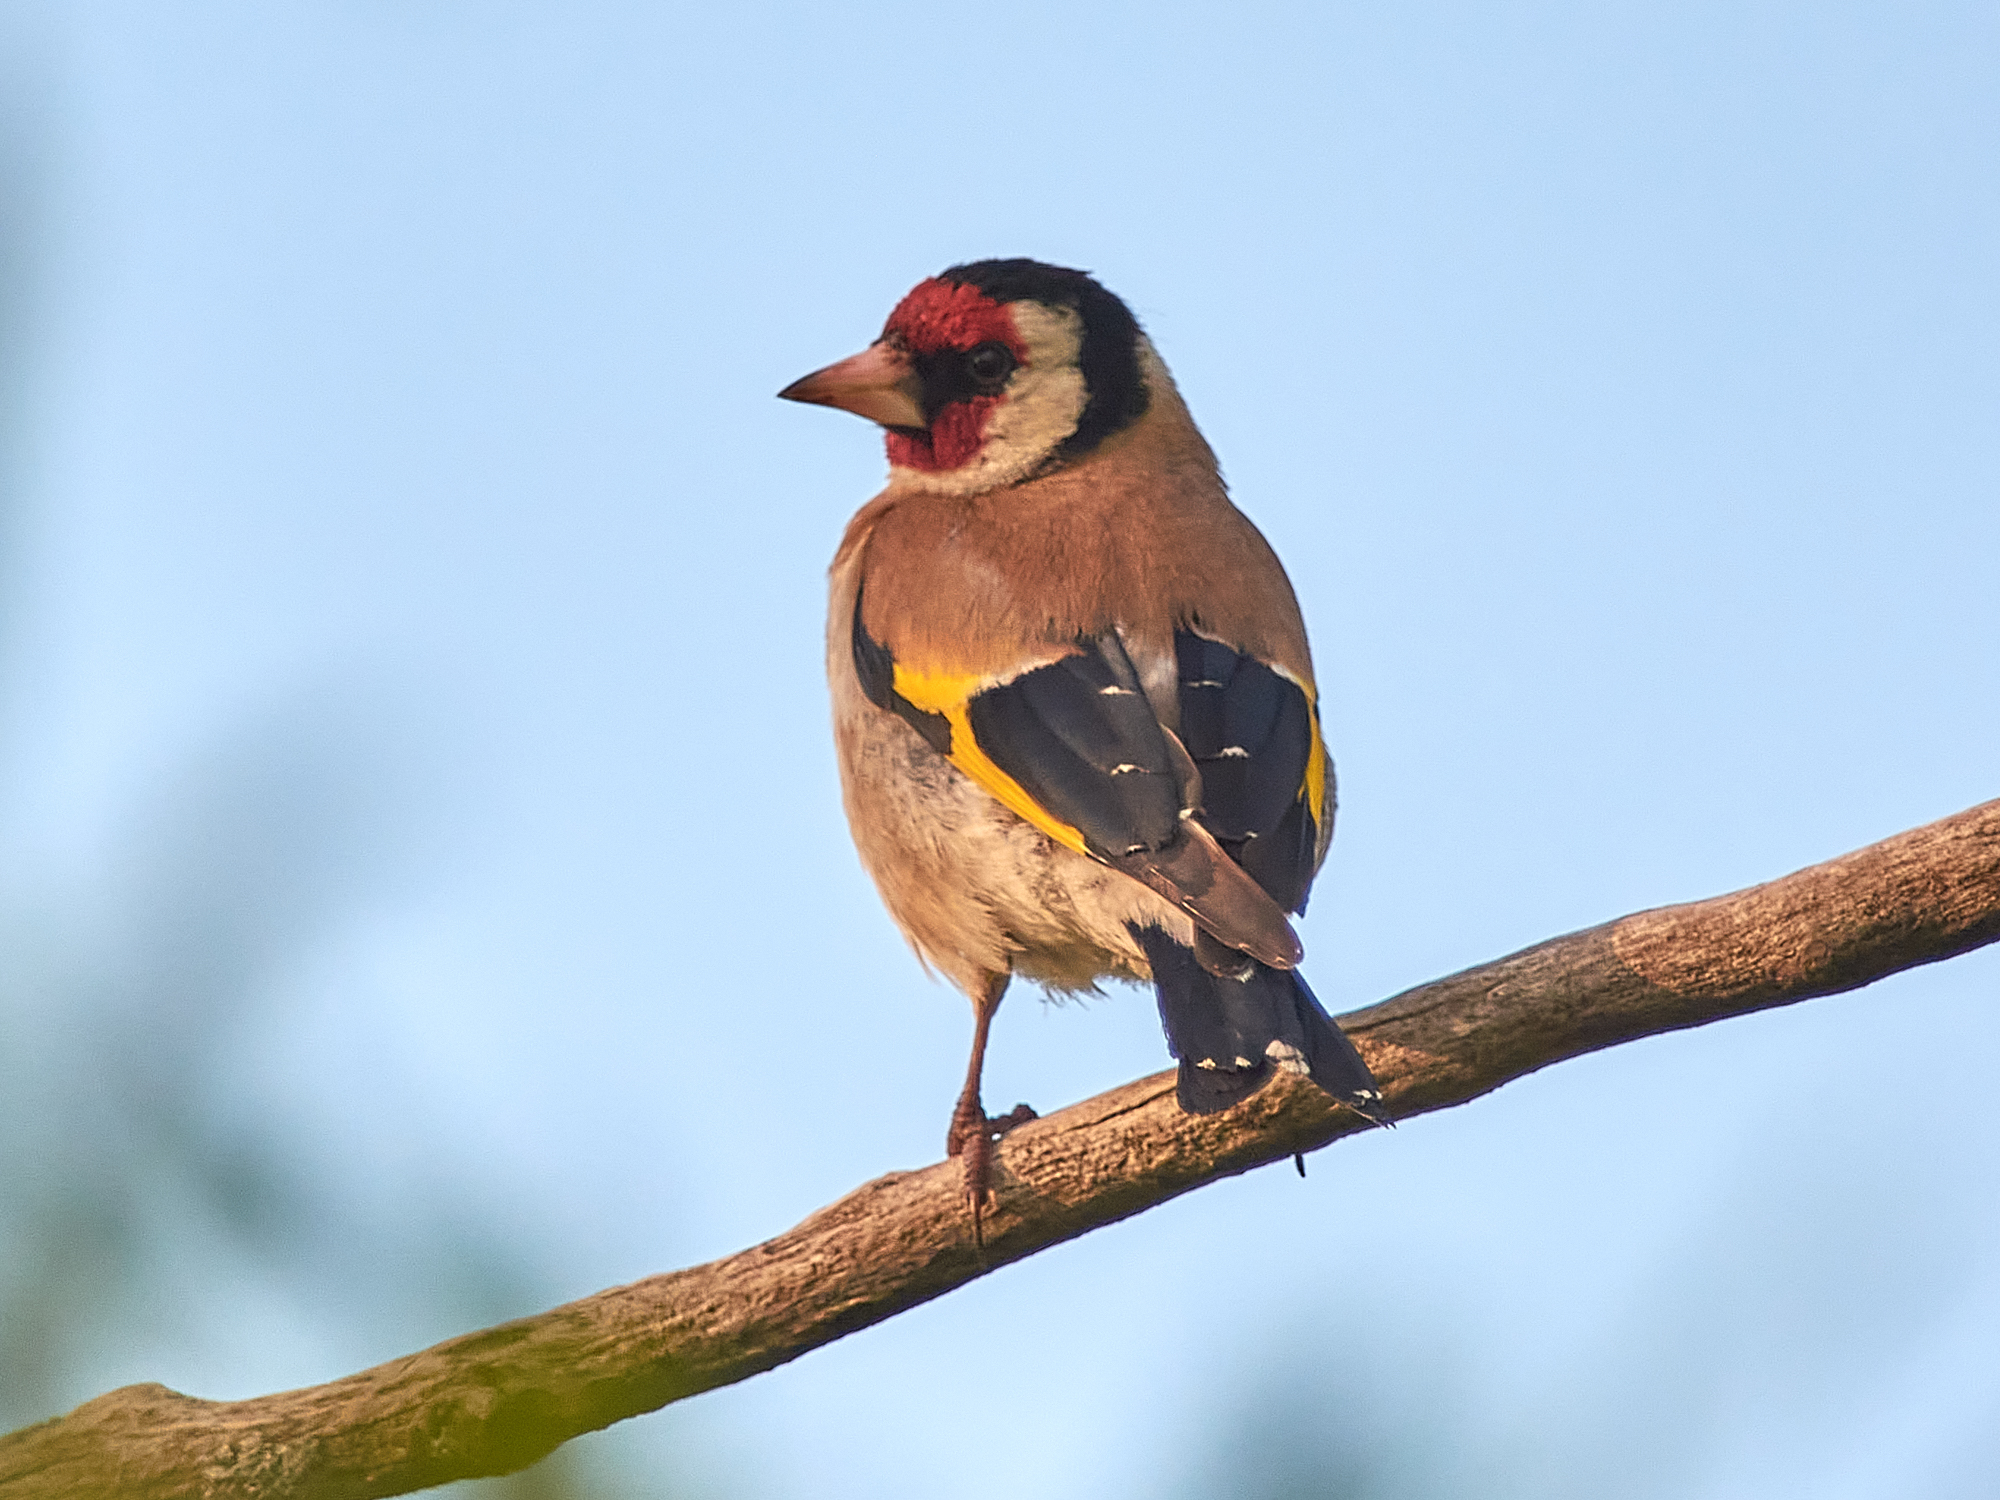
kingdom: Animalia
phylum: Chordata
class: Aves
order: Passeriformes
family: Fringillidae
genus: Carduelis
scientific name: Carduelis carduelis
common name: European goldfinch
